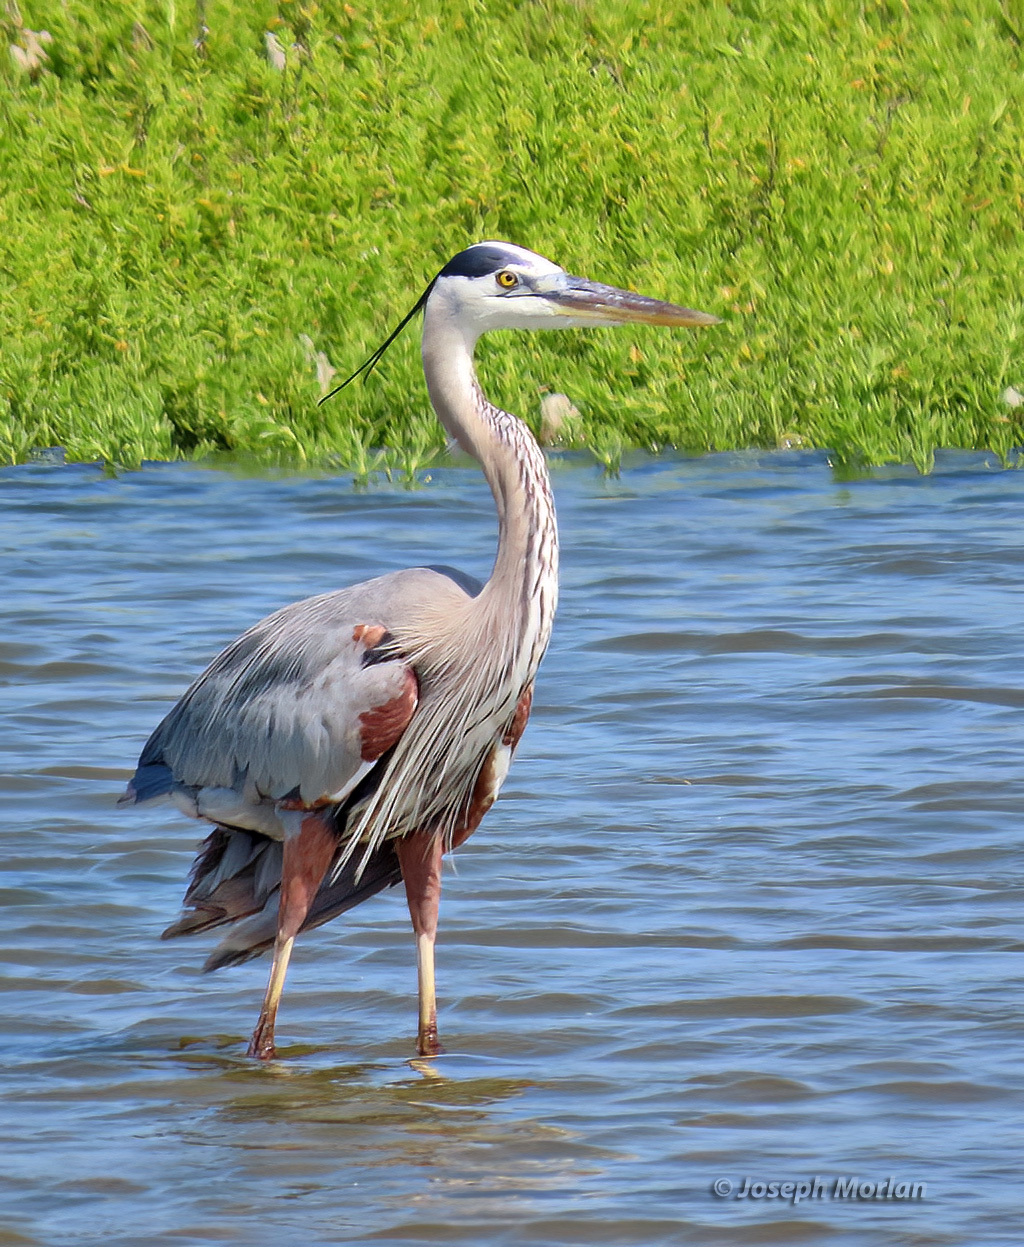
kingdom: Animalia
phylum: Chordata
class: Aves
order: Pelecaniformes
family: Ardeidae
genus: Ardea
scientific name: Ardea herodias
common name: Great blue heron
